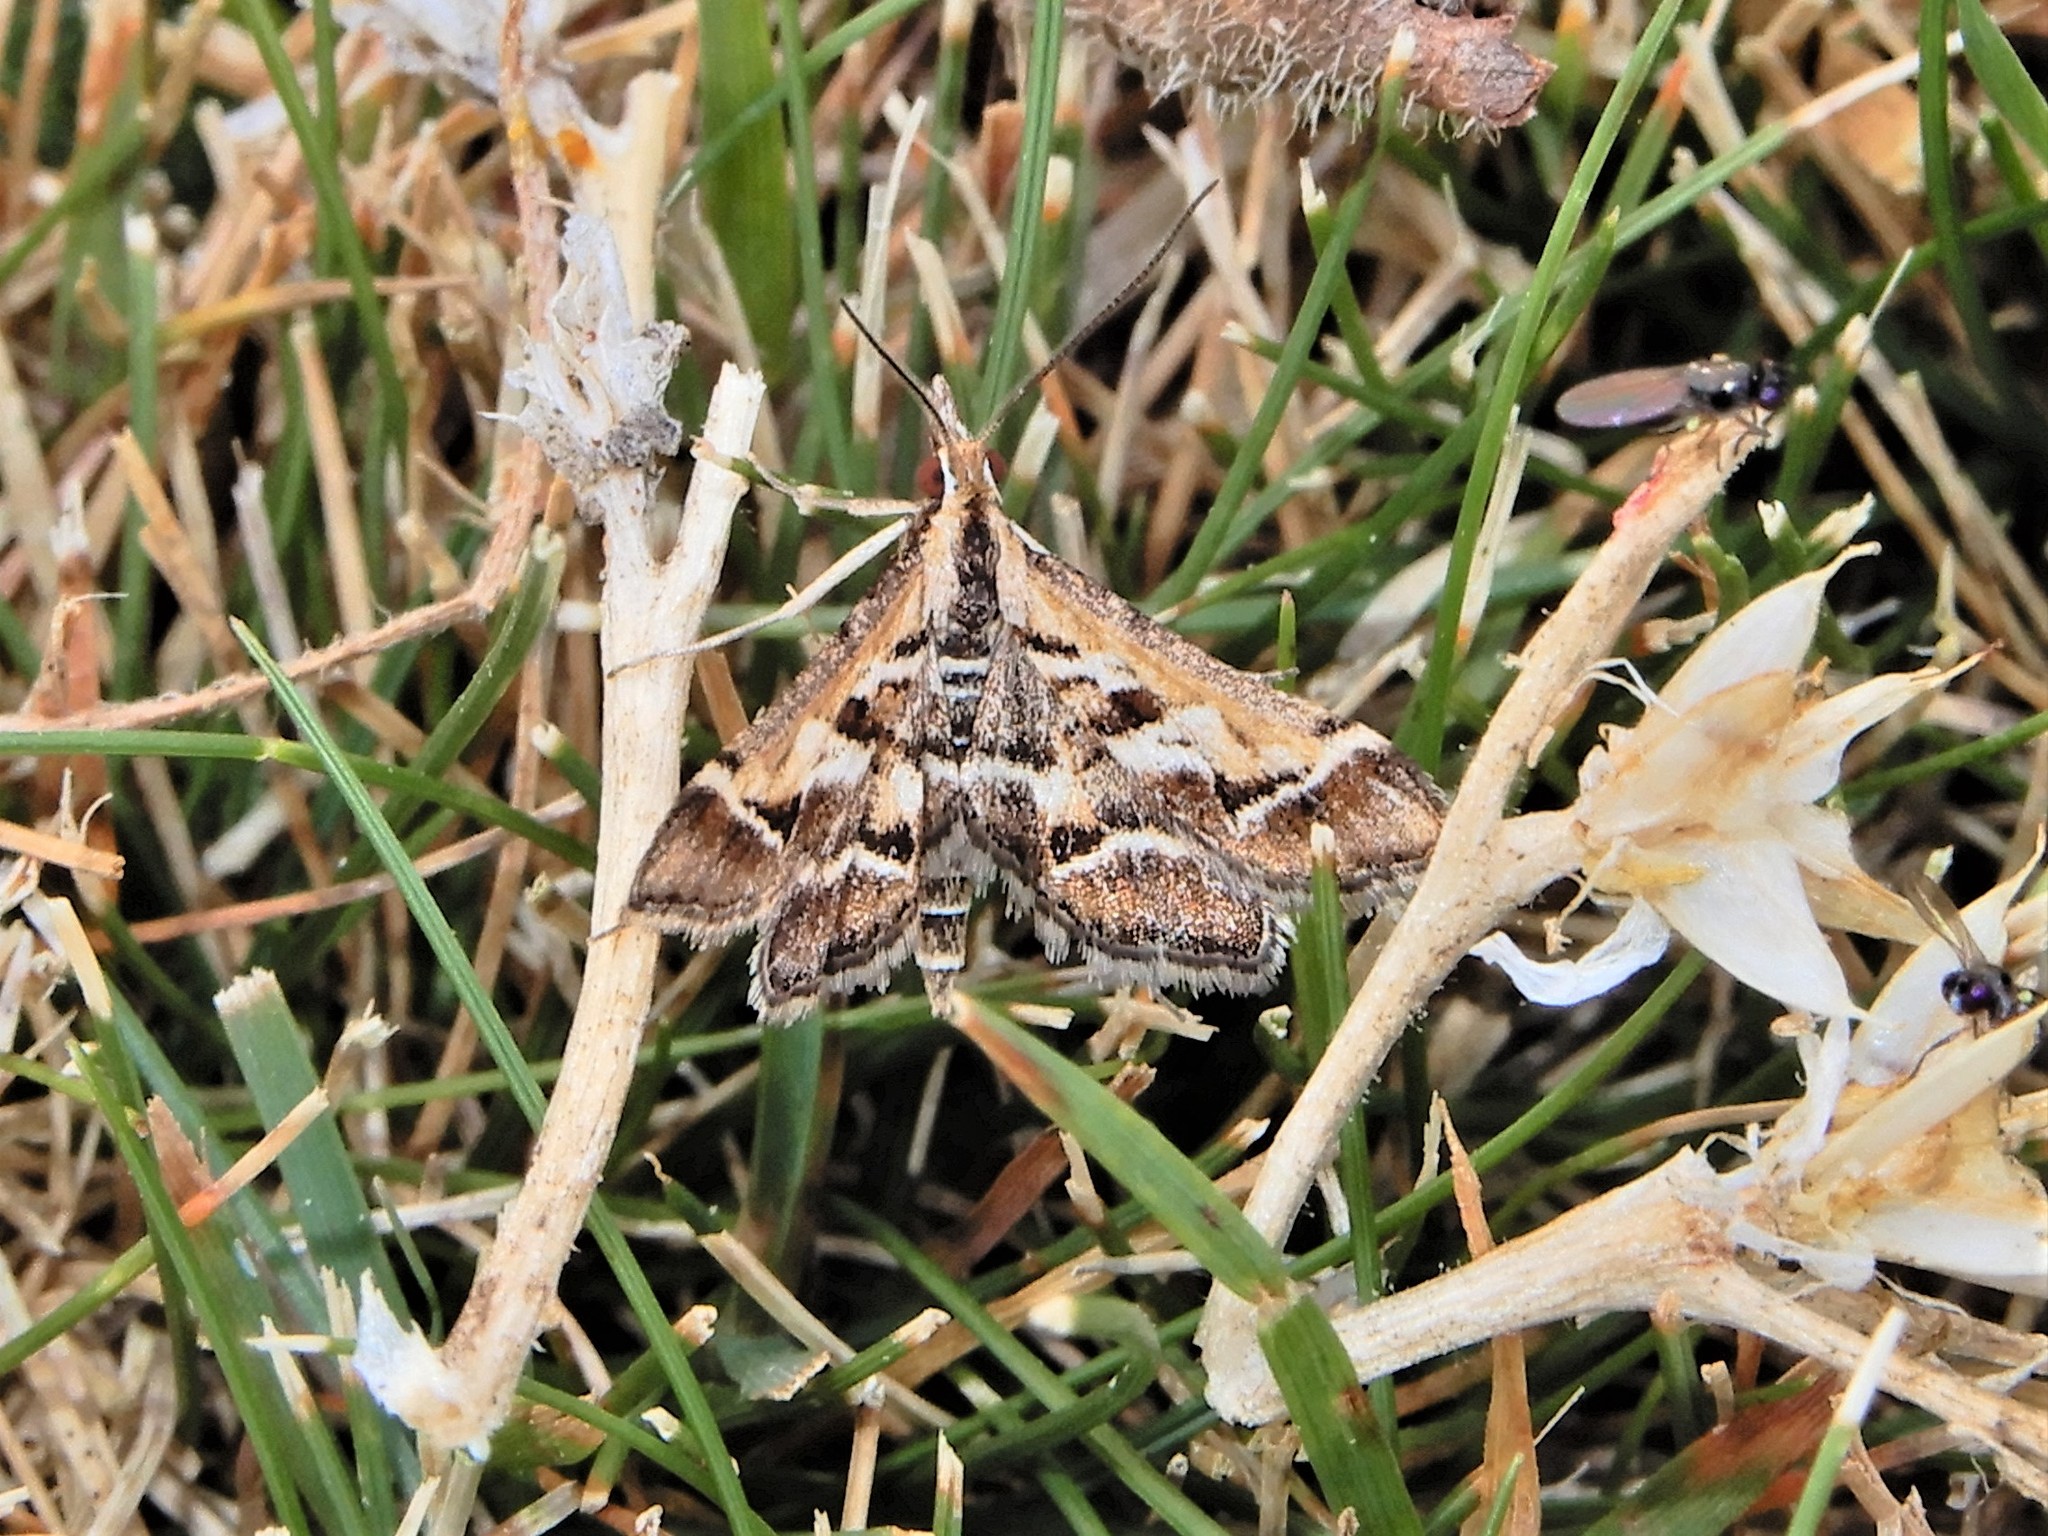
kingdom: Animalia
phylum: Arthropoda
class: Insecta
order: Lepidoptera
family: Crambidae
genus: Diasemia
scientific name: Diasemia grammalis
